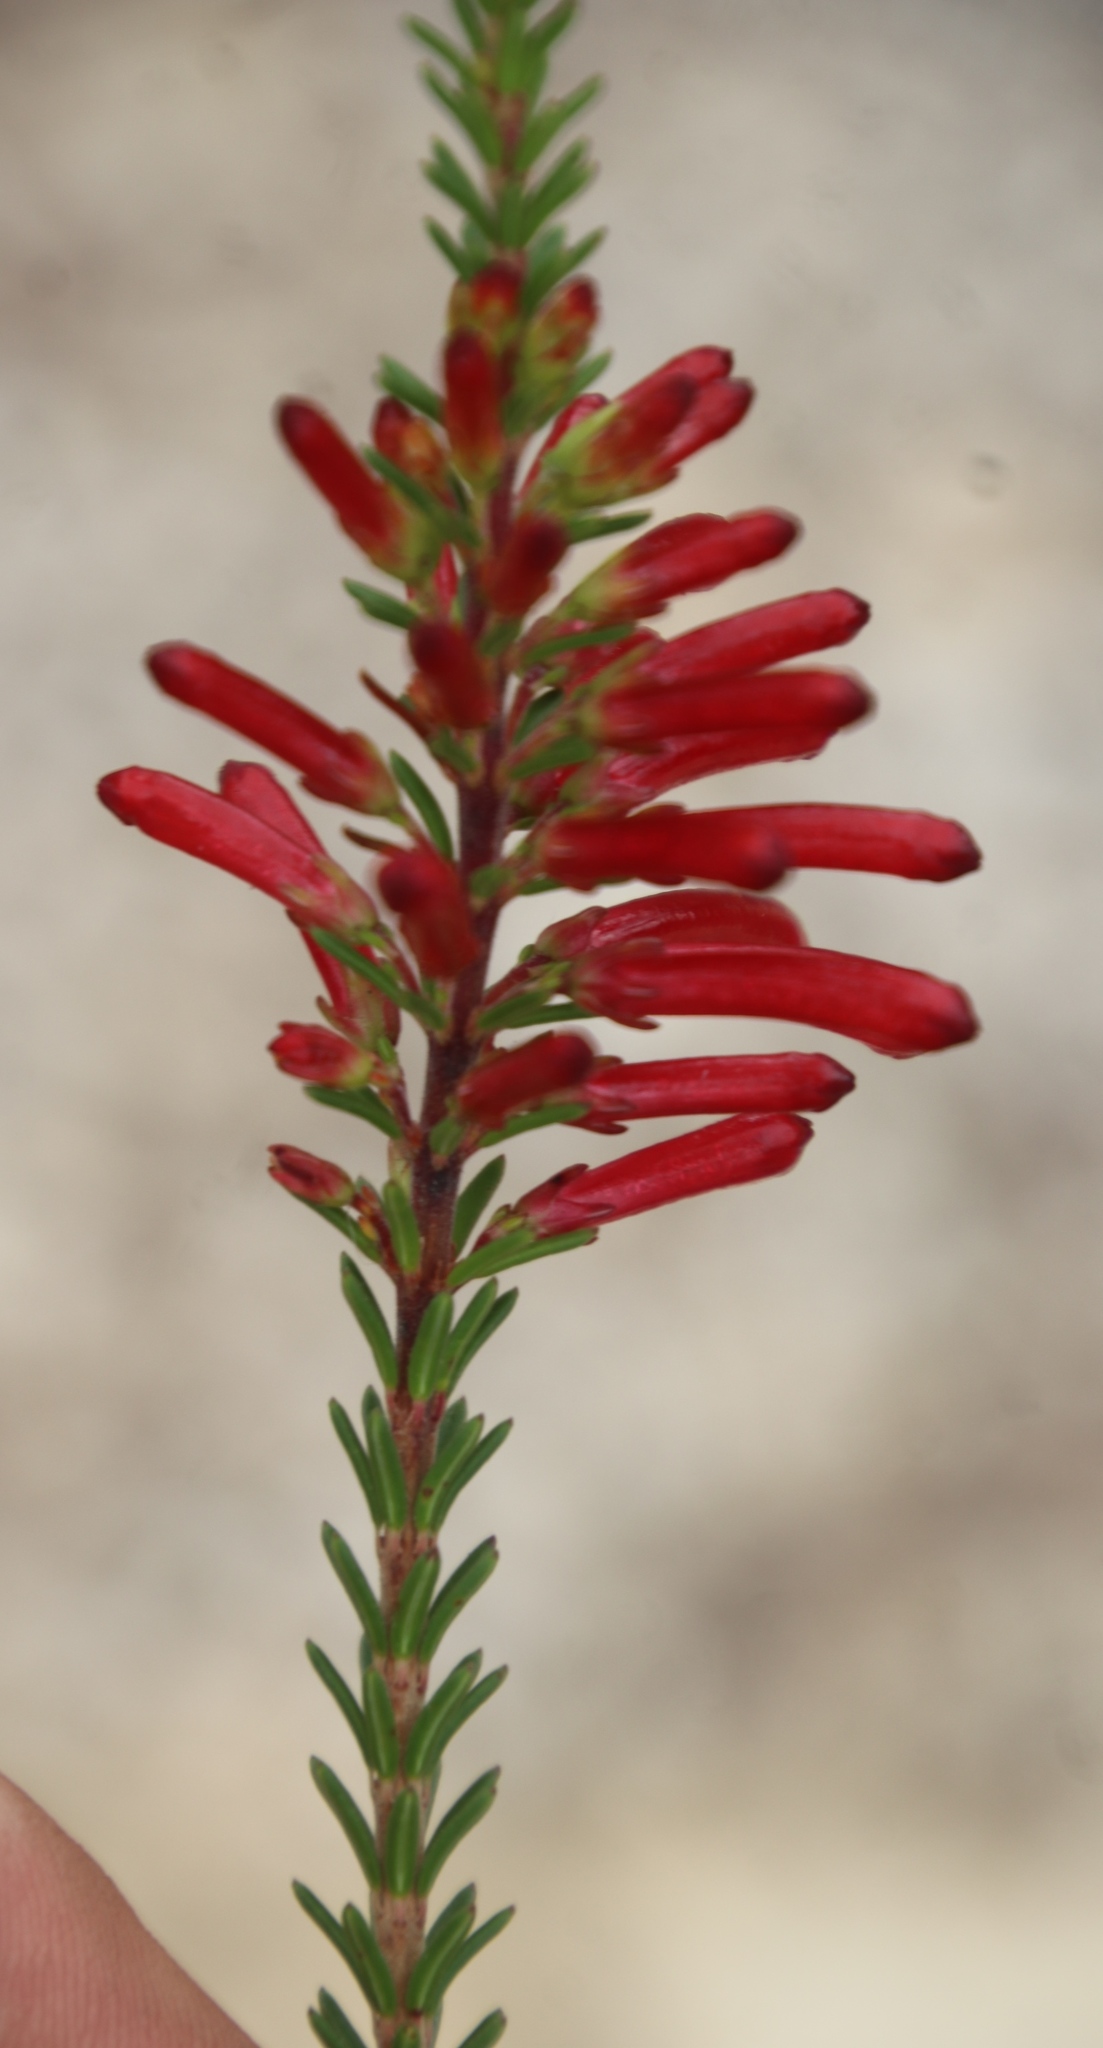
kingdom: Plantae
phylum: Tracheophyta
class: Magnoliopsida
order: Ericales
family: Ericaceae
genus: Erica
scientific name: Erica regia
